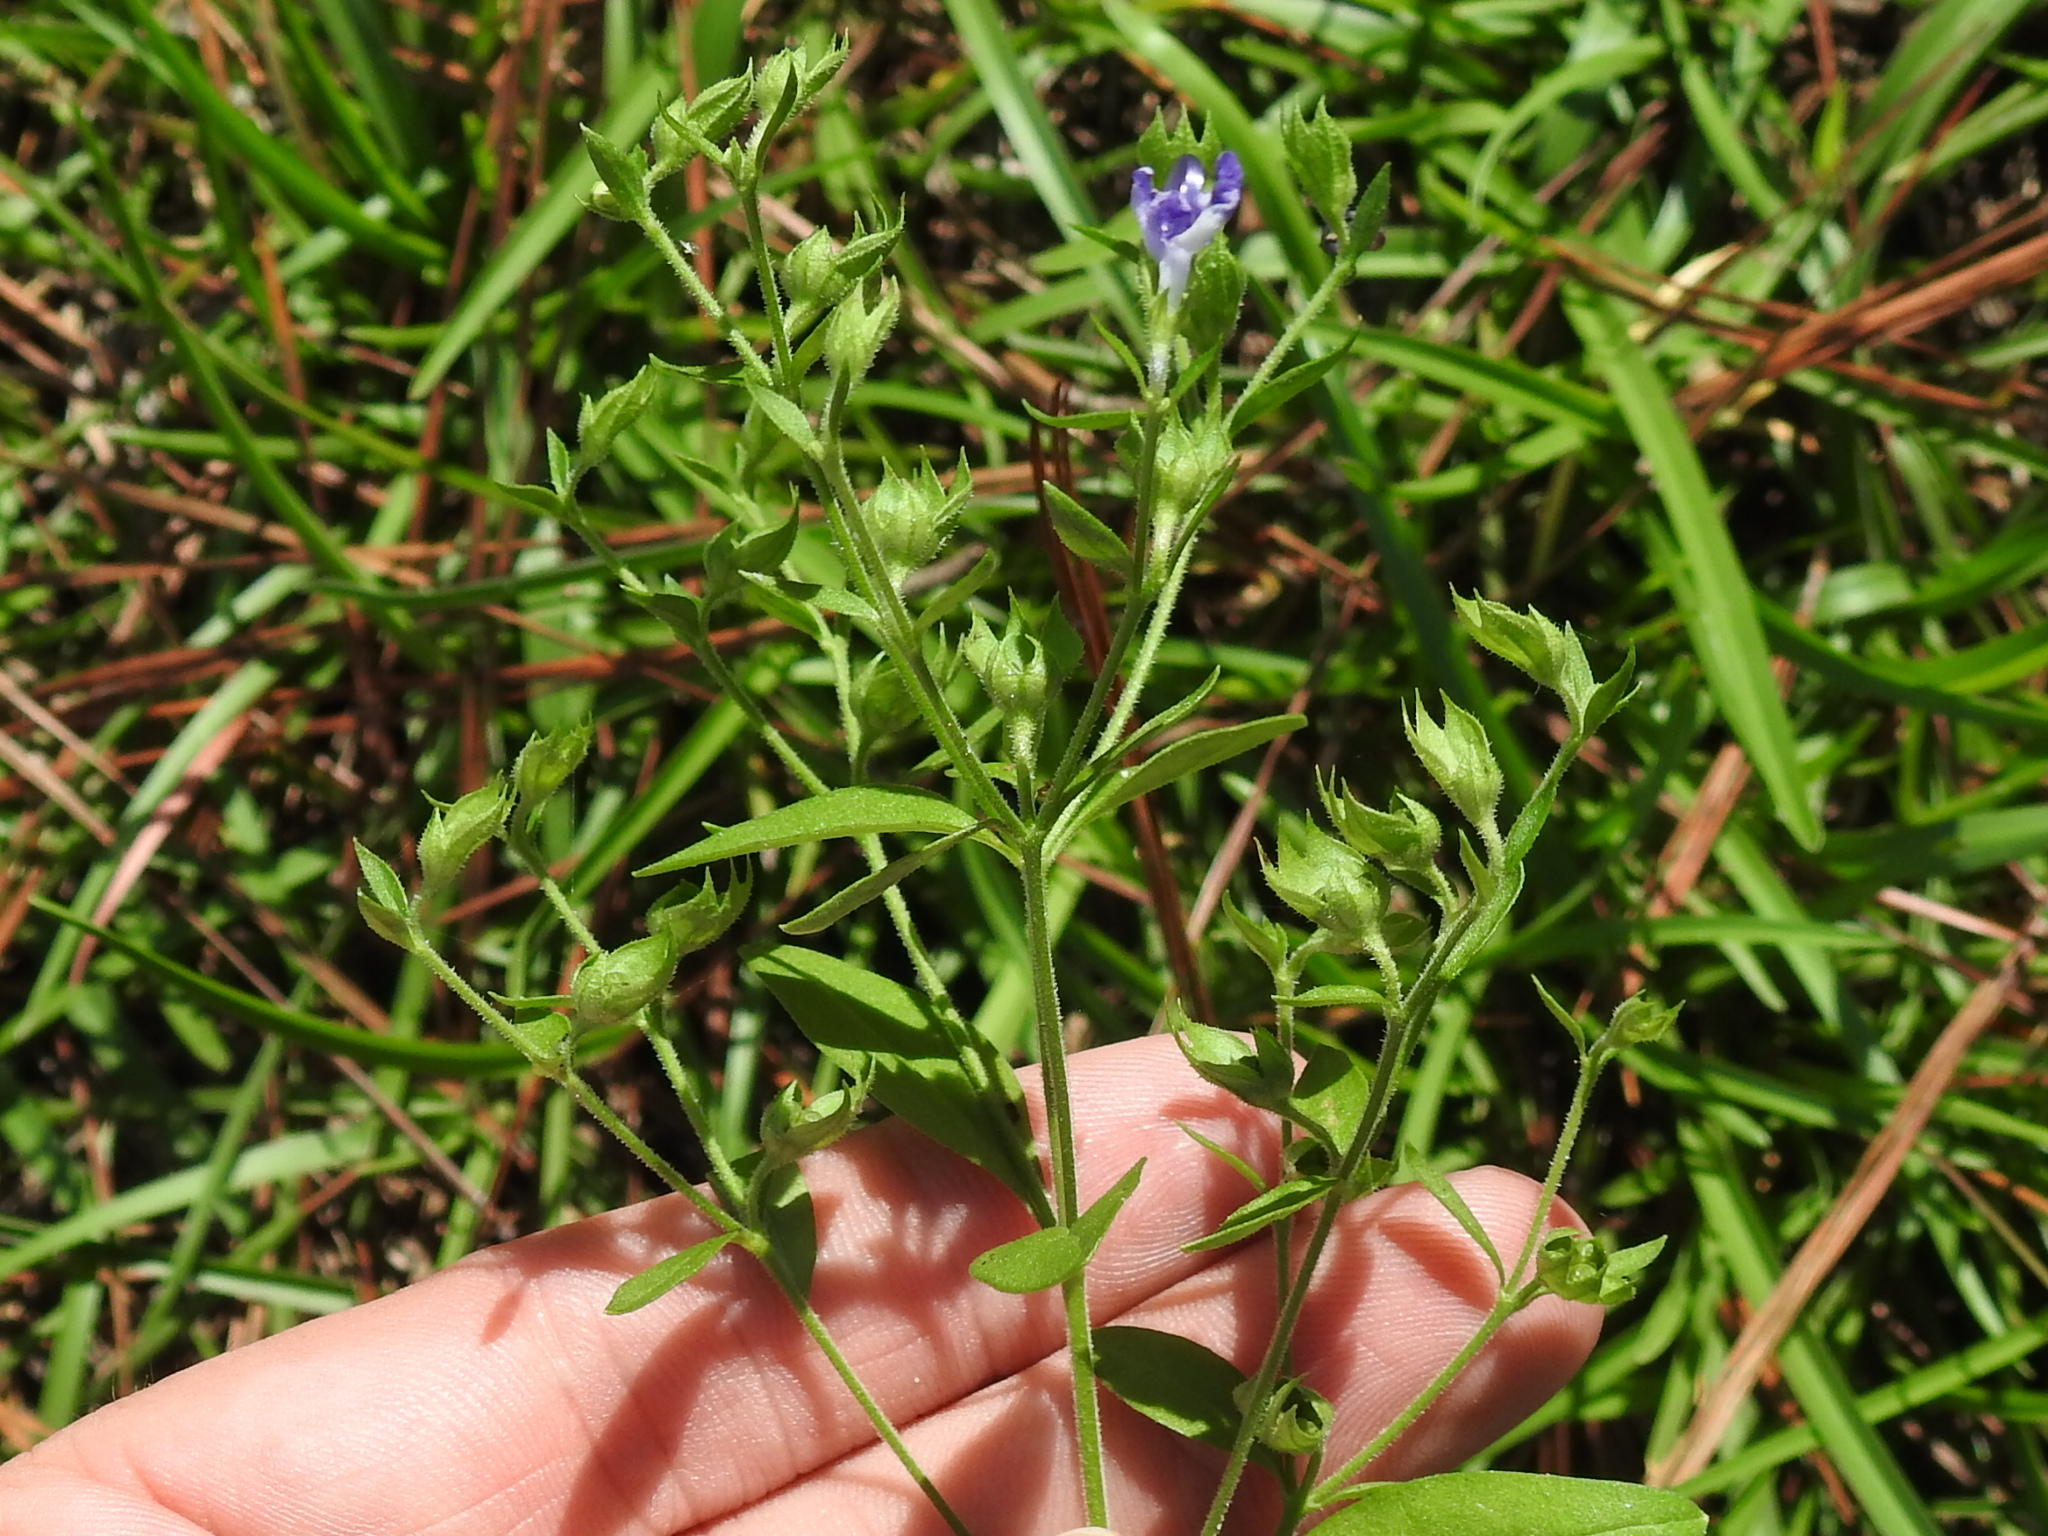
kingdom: Plantae
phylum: Tracheophyta
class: Magnoliopsida
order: Lamiales
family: Lamiaceae
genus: Trichostema
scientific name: Trichostema dichotomum
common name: Bastard pennyroyal
